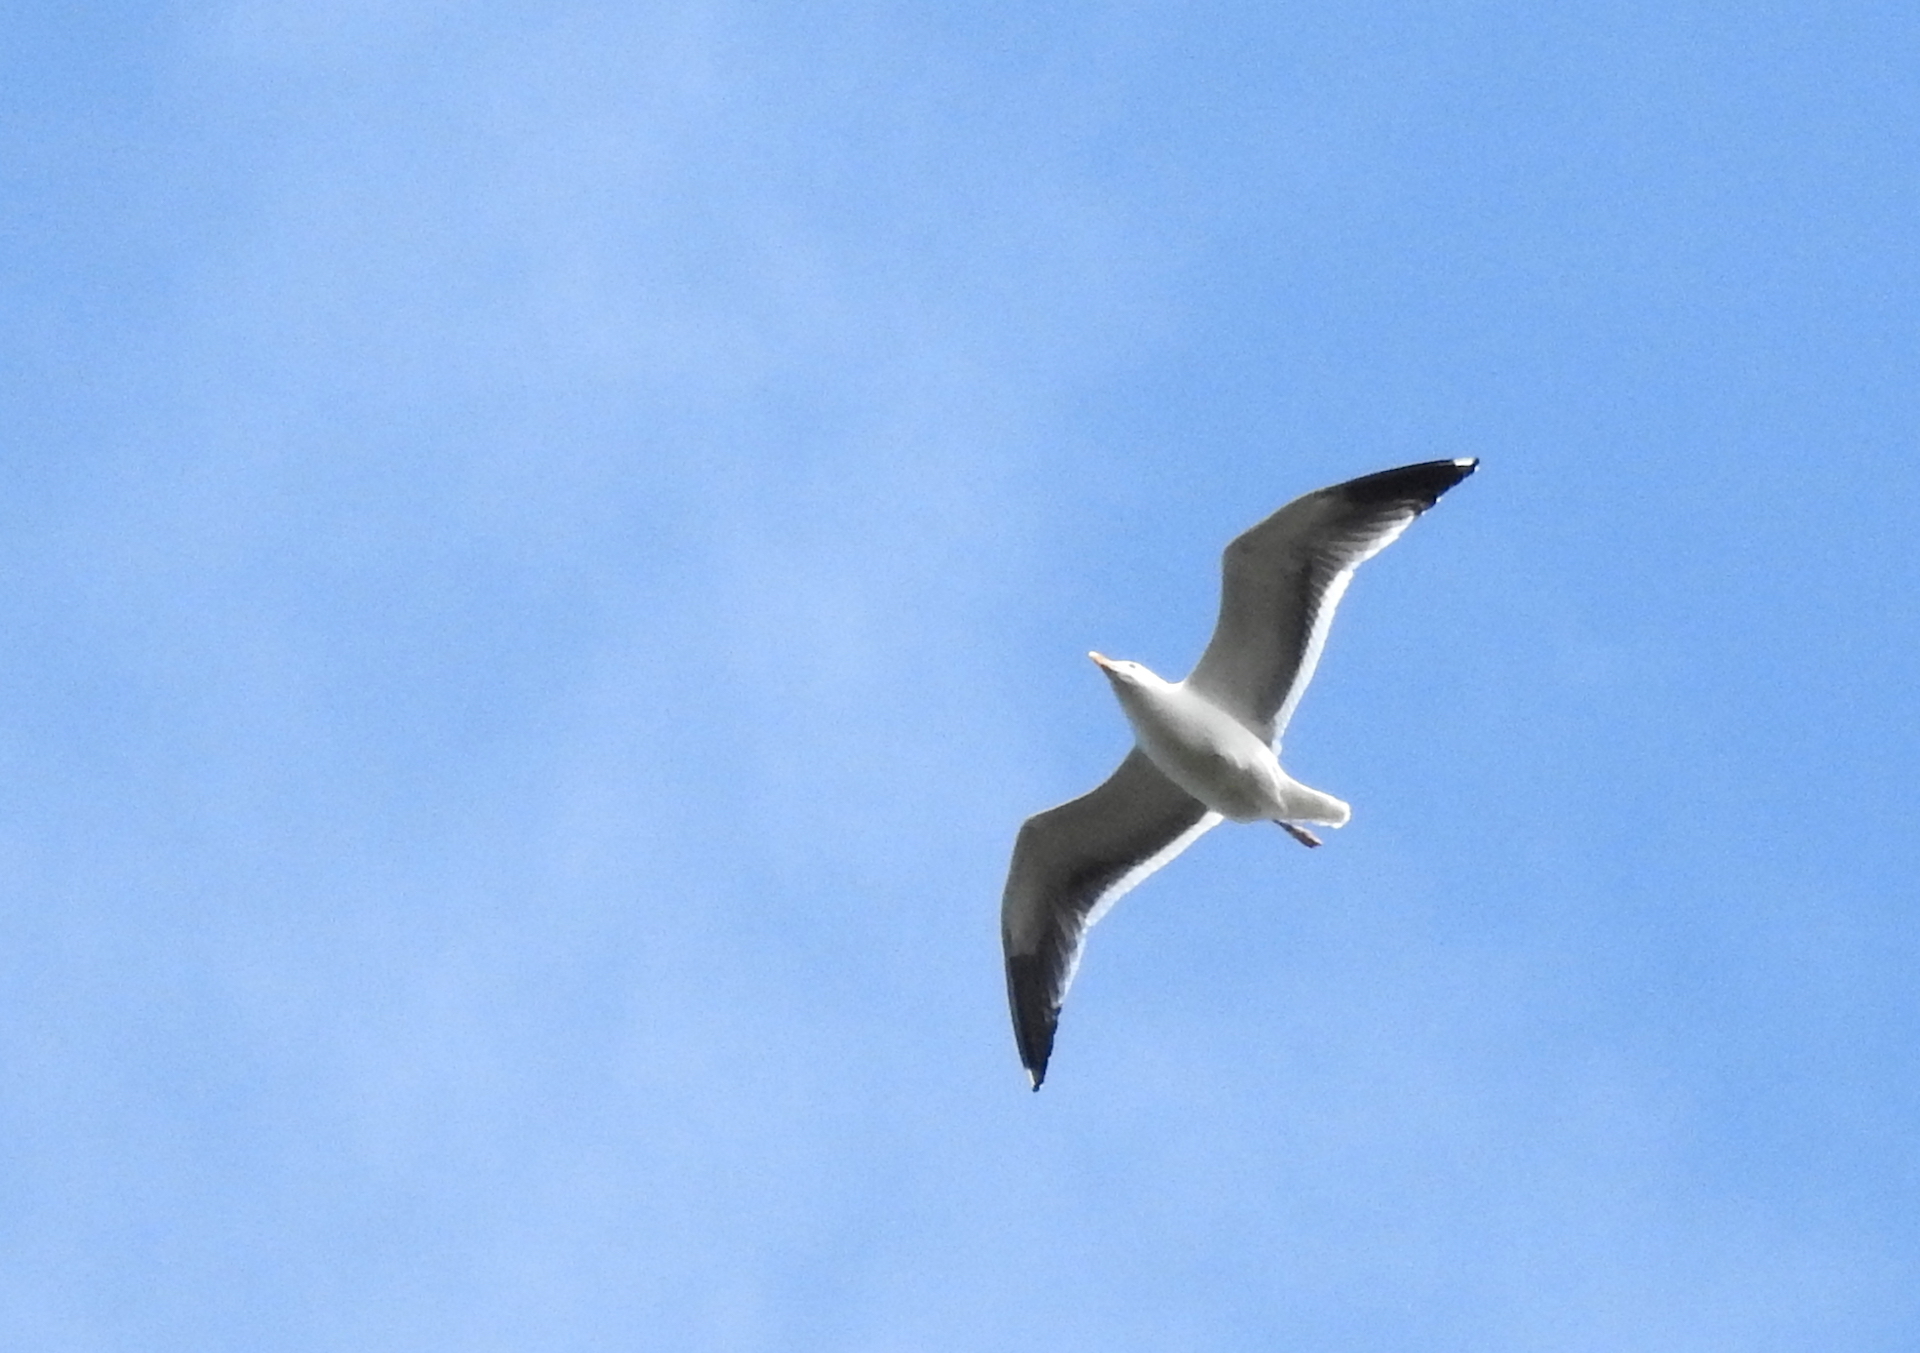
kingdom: Animalia
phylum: Chordata
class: Aves
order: Charadriiformes
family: Laridae
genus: Larus
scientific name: Larus occidentalis
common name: Western gull
